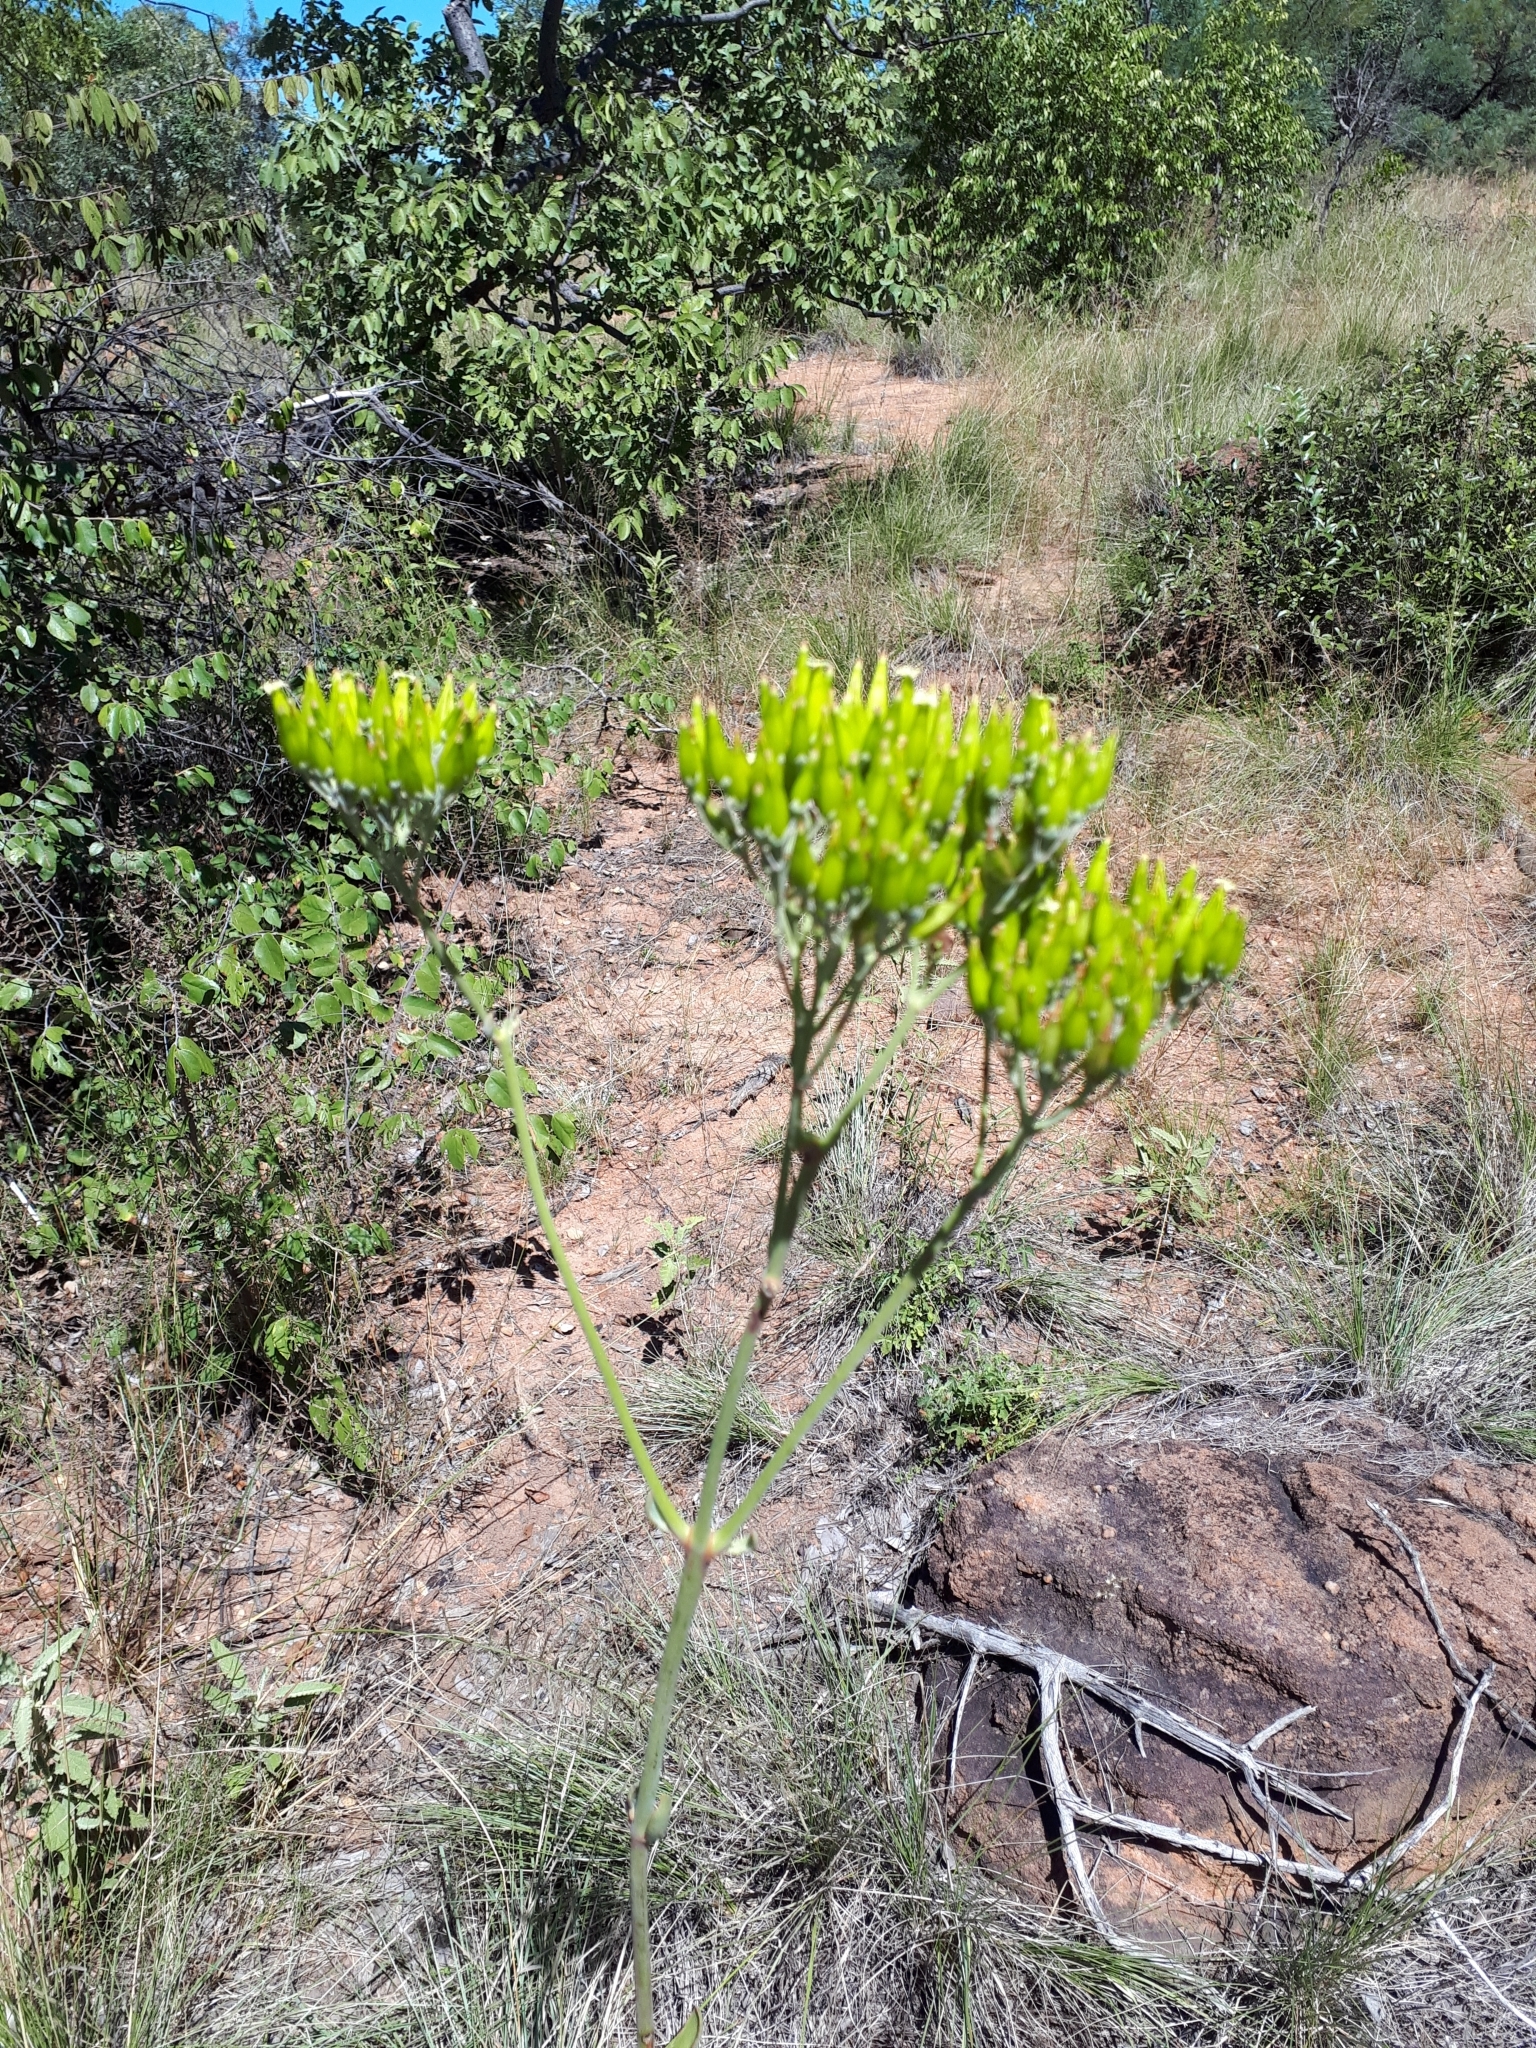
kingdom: Plantae
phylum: Tracheophyta
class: Magnoliopsida
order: Saxifragales
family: Crassulaceae
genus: Kalanchoe
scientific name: Kalanchoe paniculata
